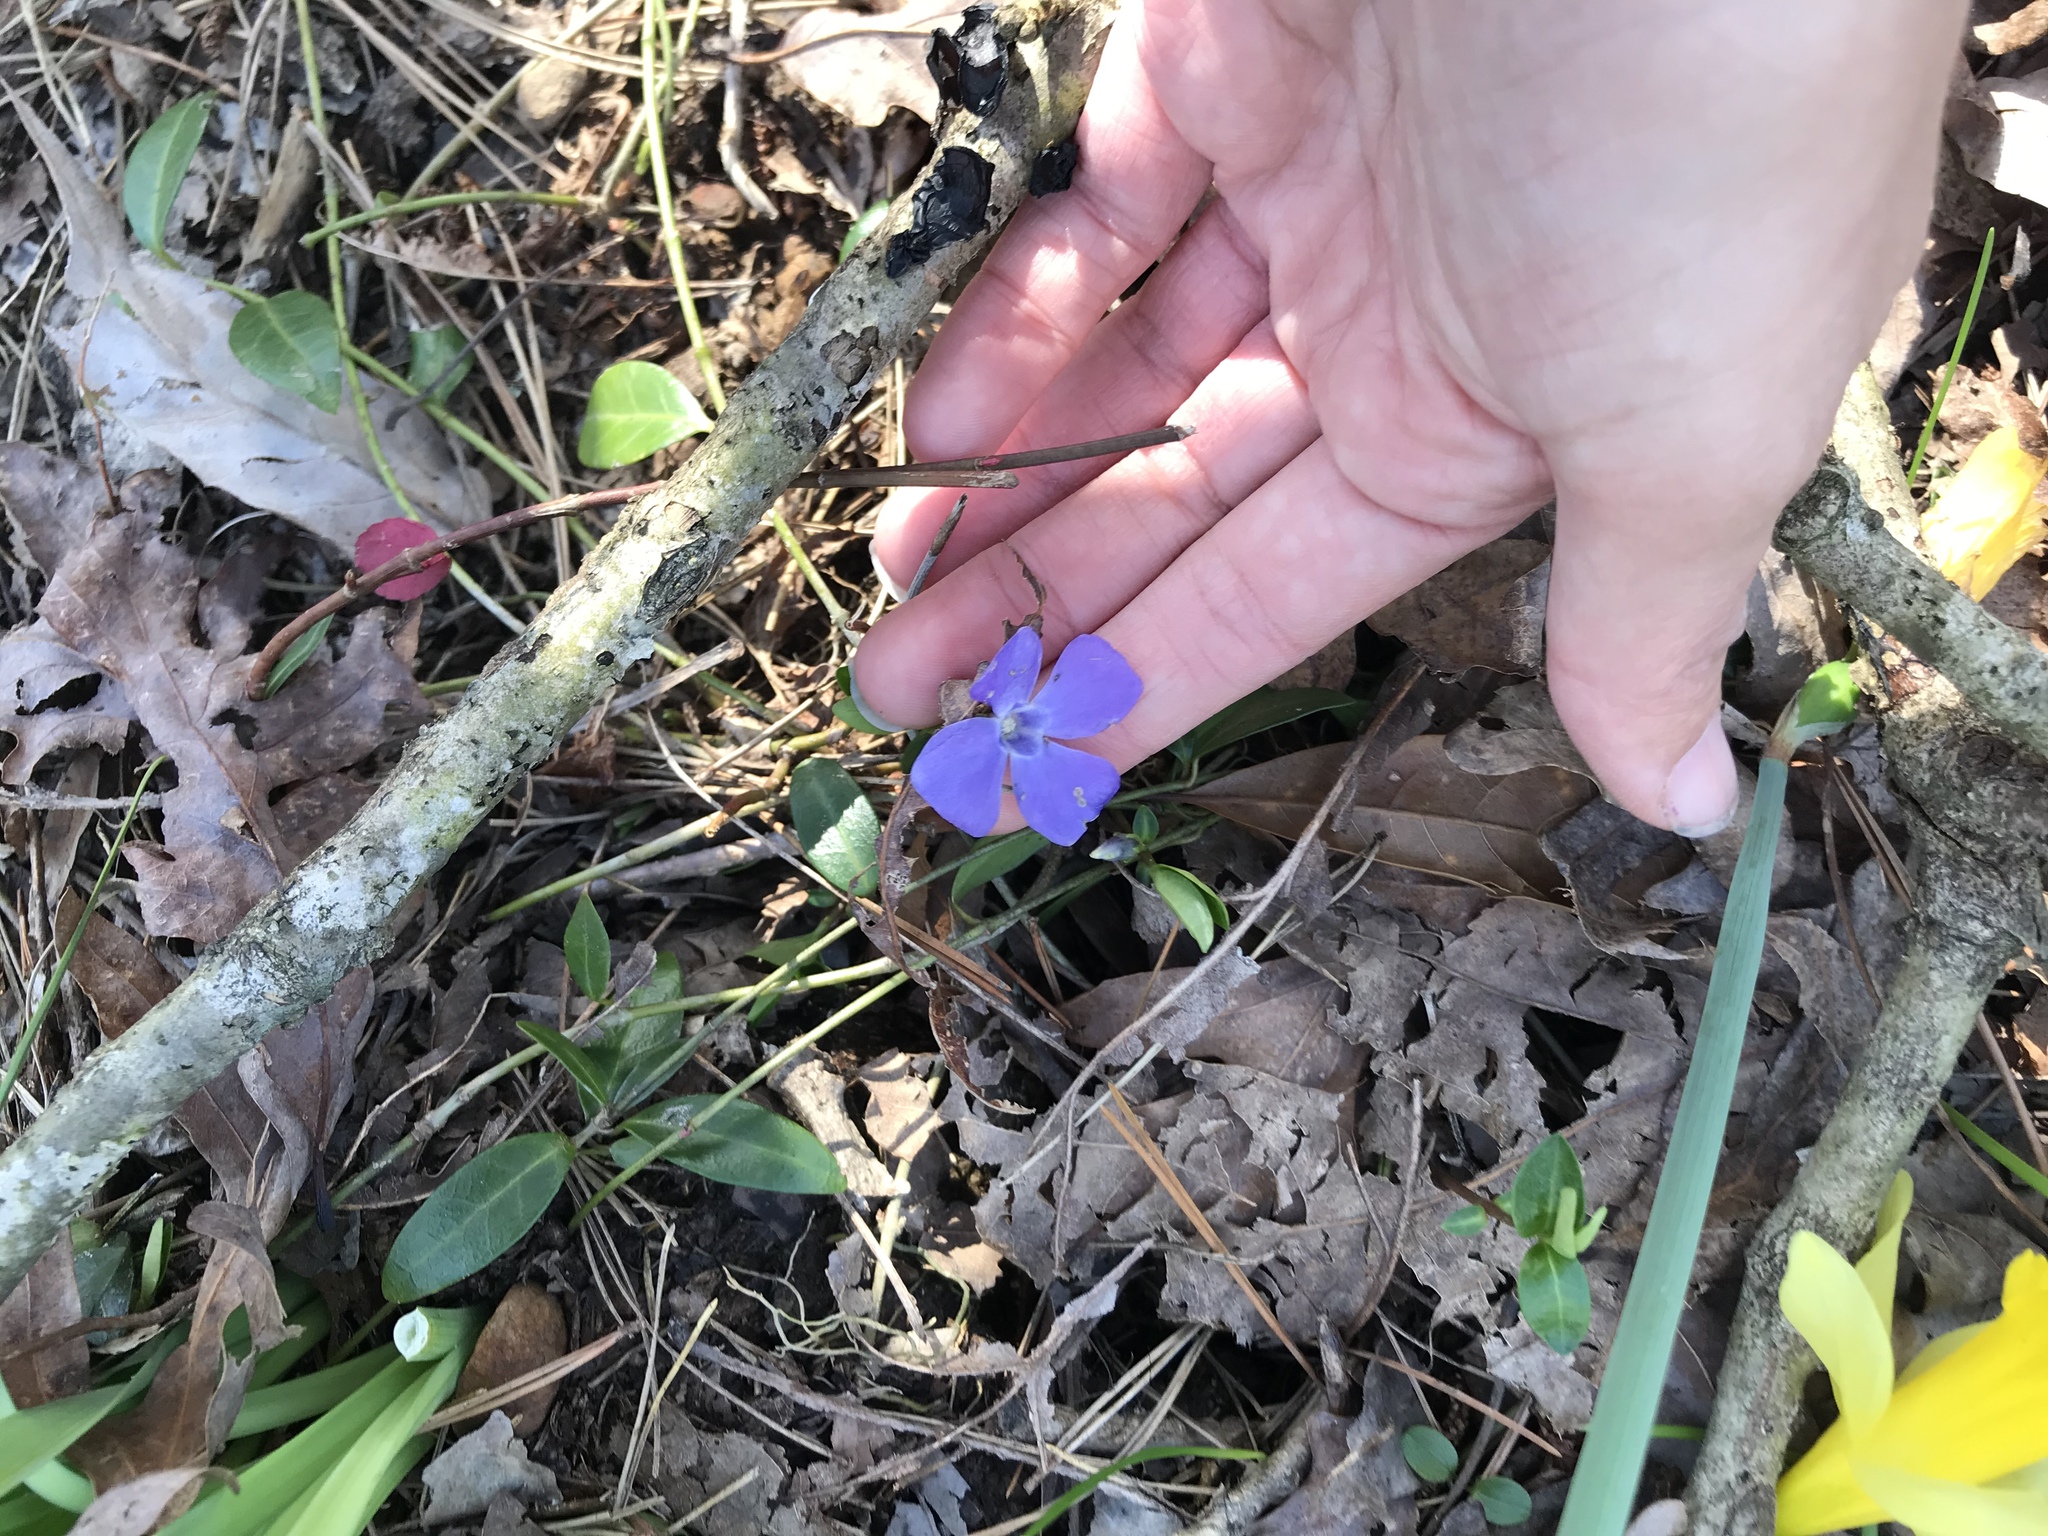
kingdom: Plantae
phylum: Tracheophyta
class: Magnoliopsida
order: Gentianales
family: Apocynaceae
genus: Vinca
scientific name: Vinca minor
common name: Lesser periwinkle
